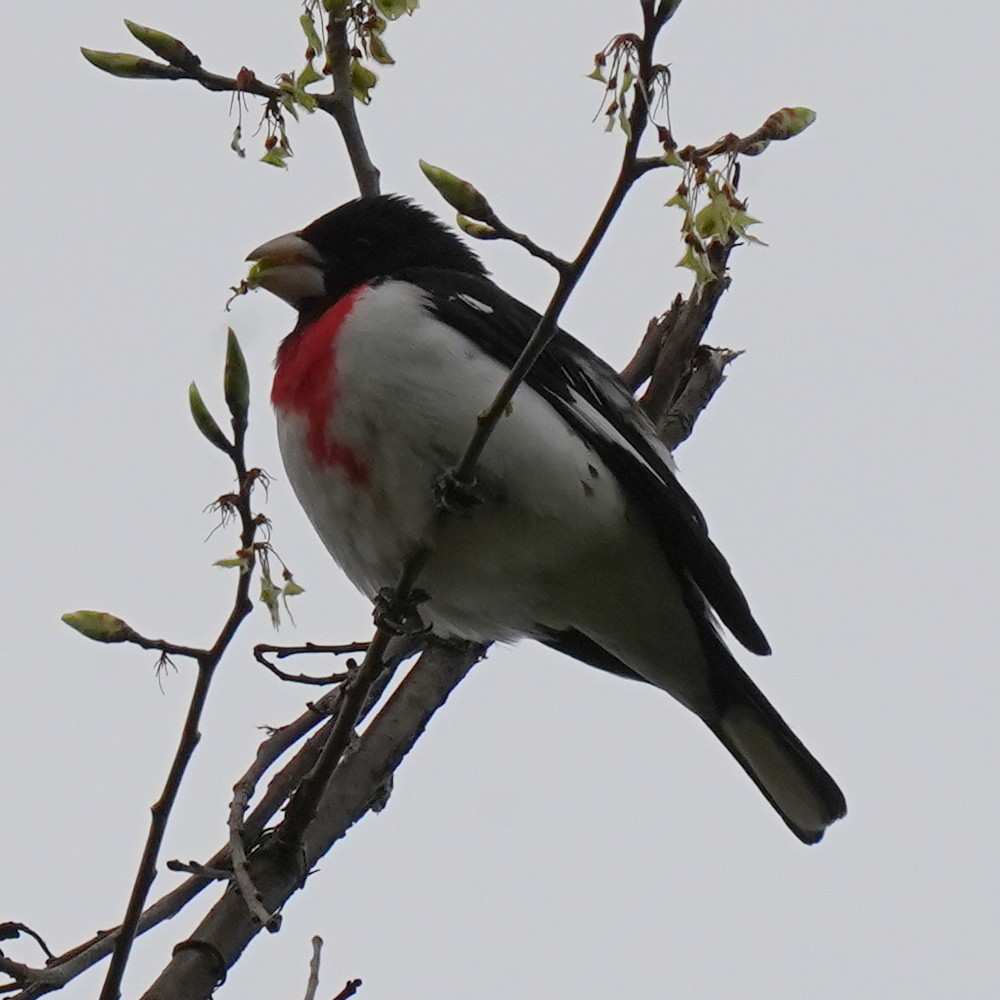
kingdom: Animalia
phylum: Chordata
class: Aves
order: Passeriformes
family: Cardinalidae
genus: Pheucticus
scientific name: Pheucticus ludovicianus
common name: Rose-breasted grosbeak
